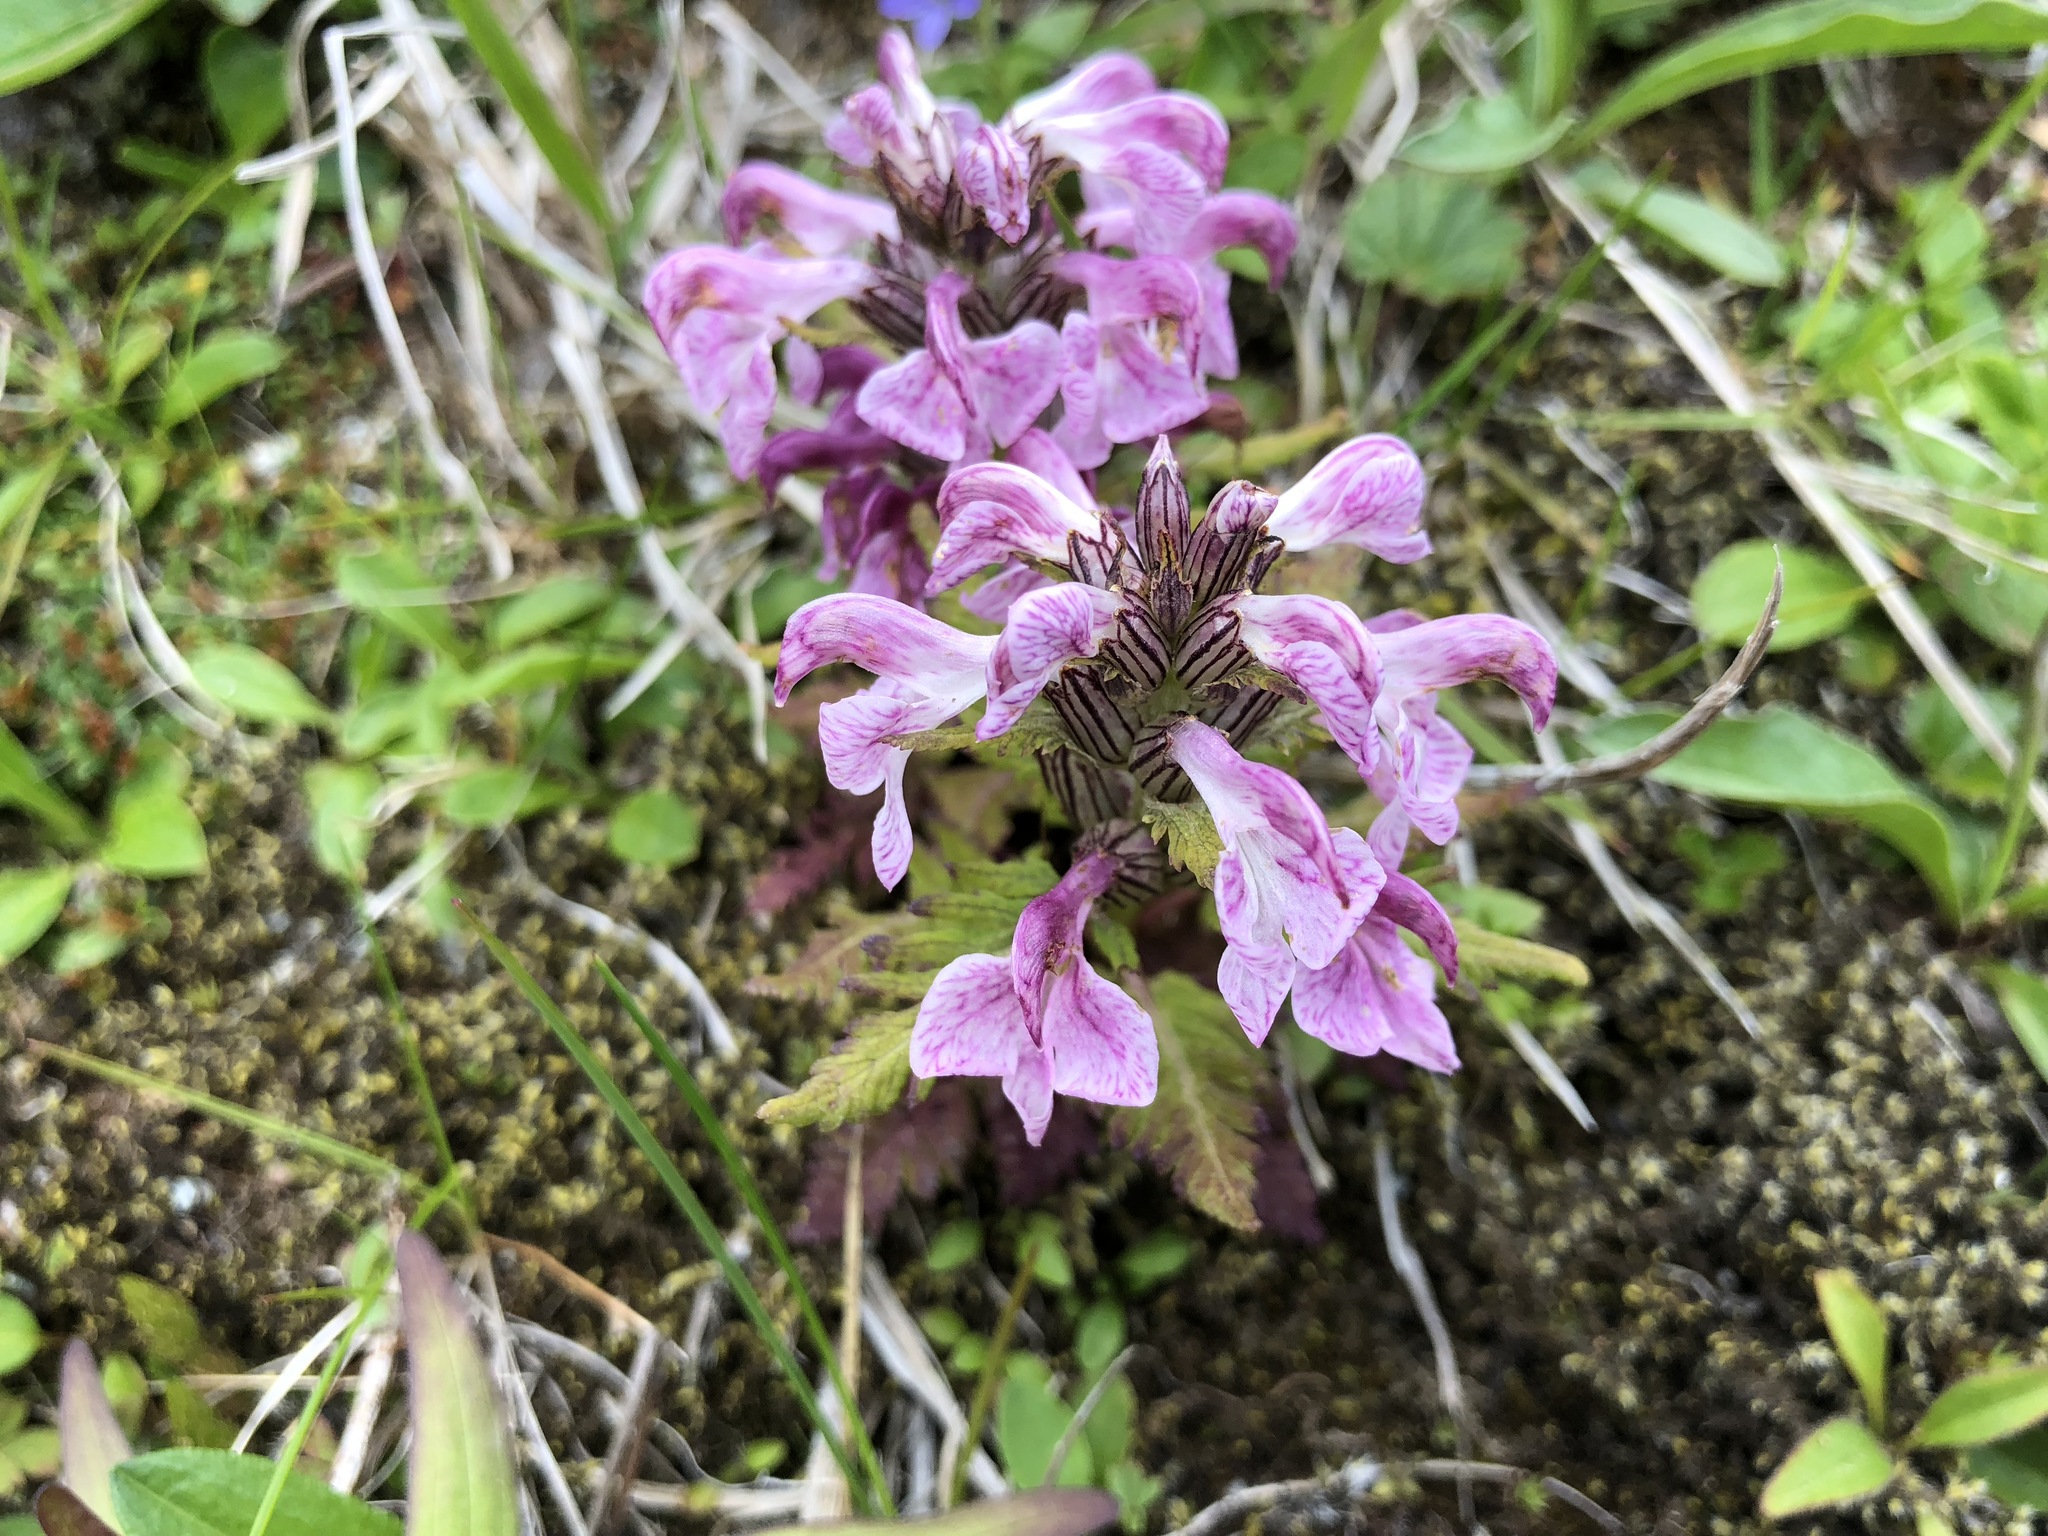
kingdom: Plantae
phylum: Tracheophyta
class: Magnoliopsida
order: Lamiales
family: Orobanchaceae
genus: Pedicularis
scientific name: Pedicularis chamissonis
